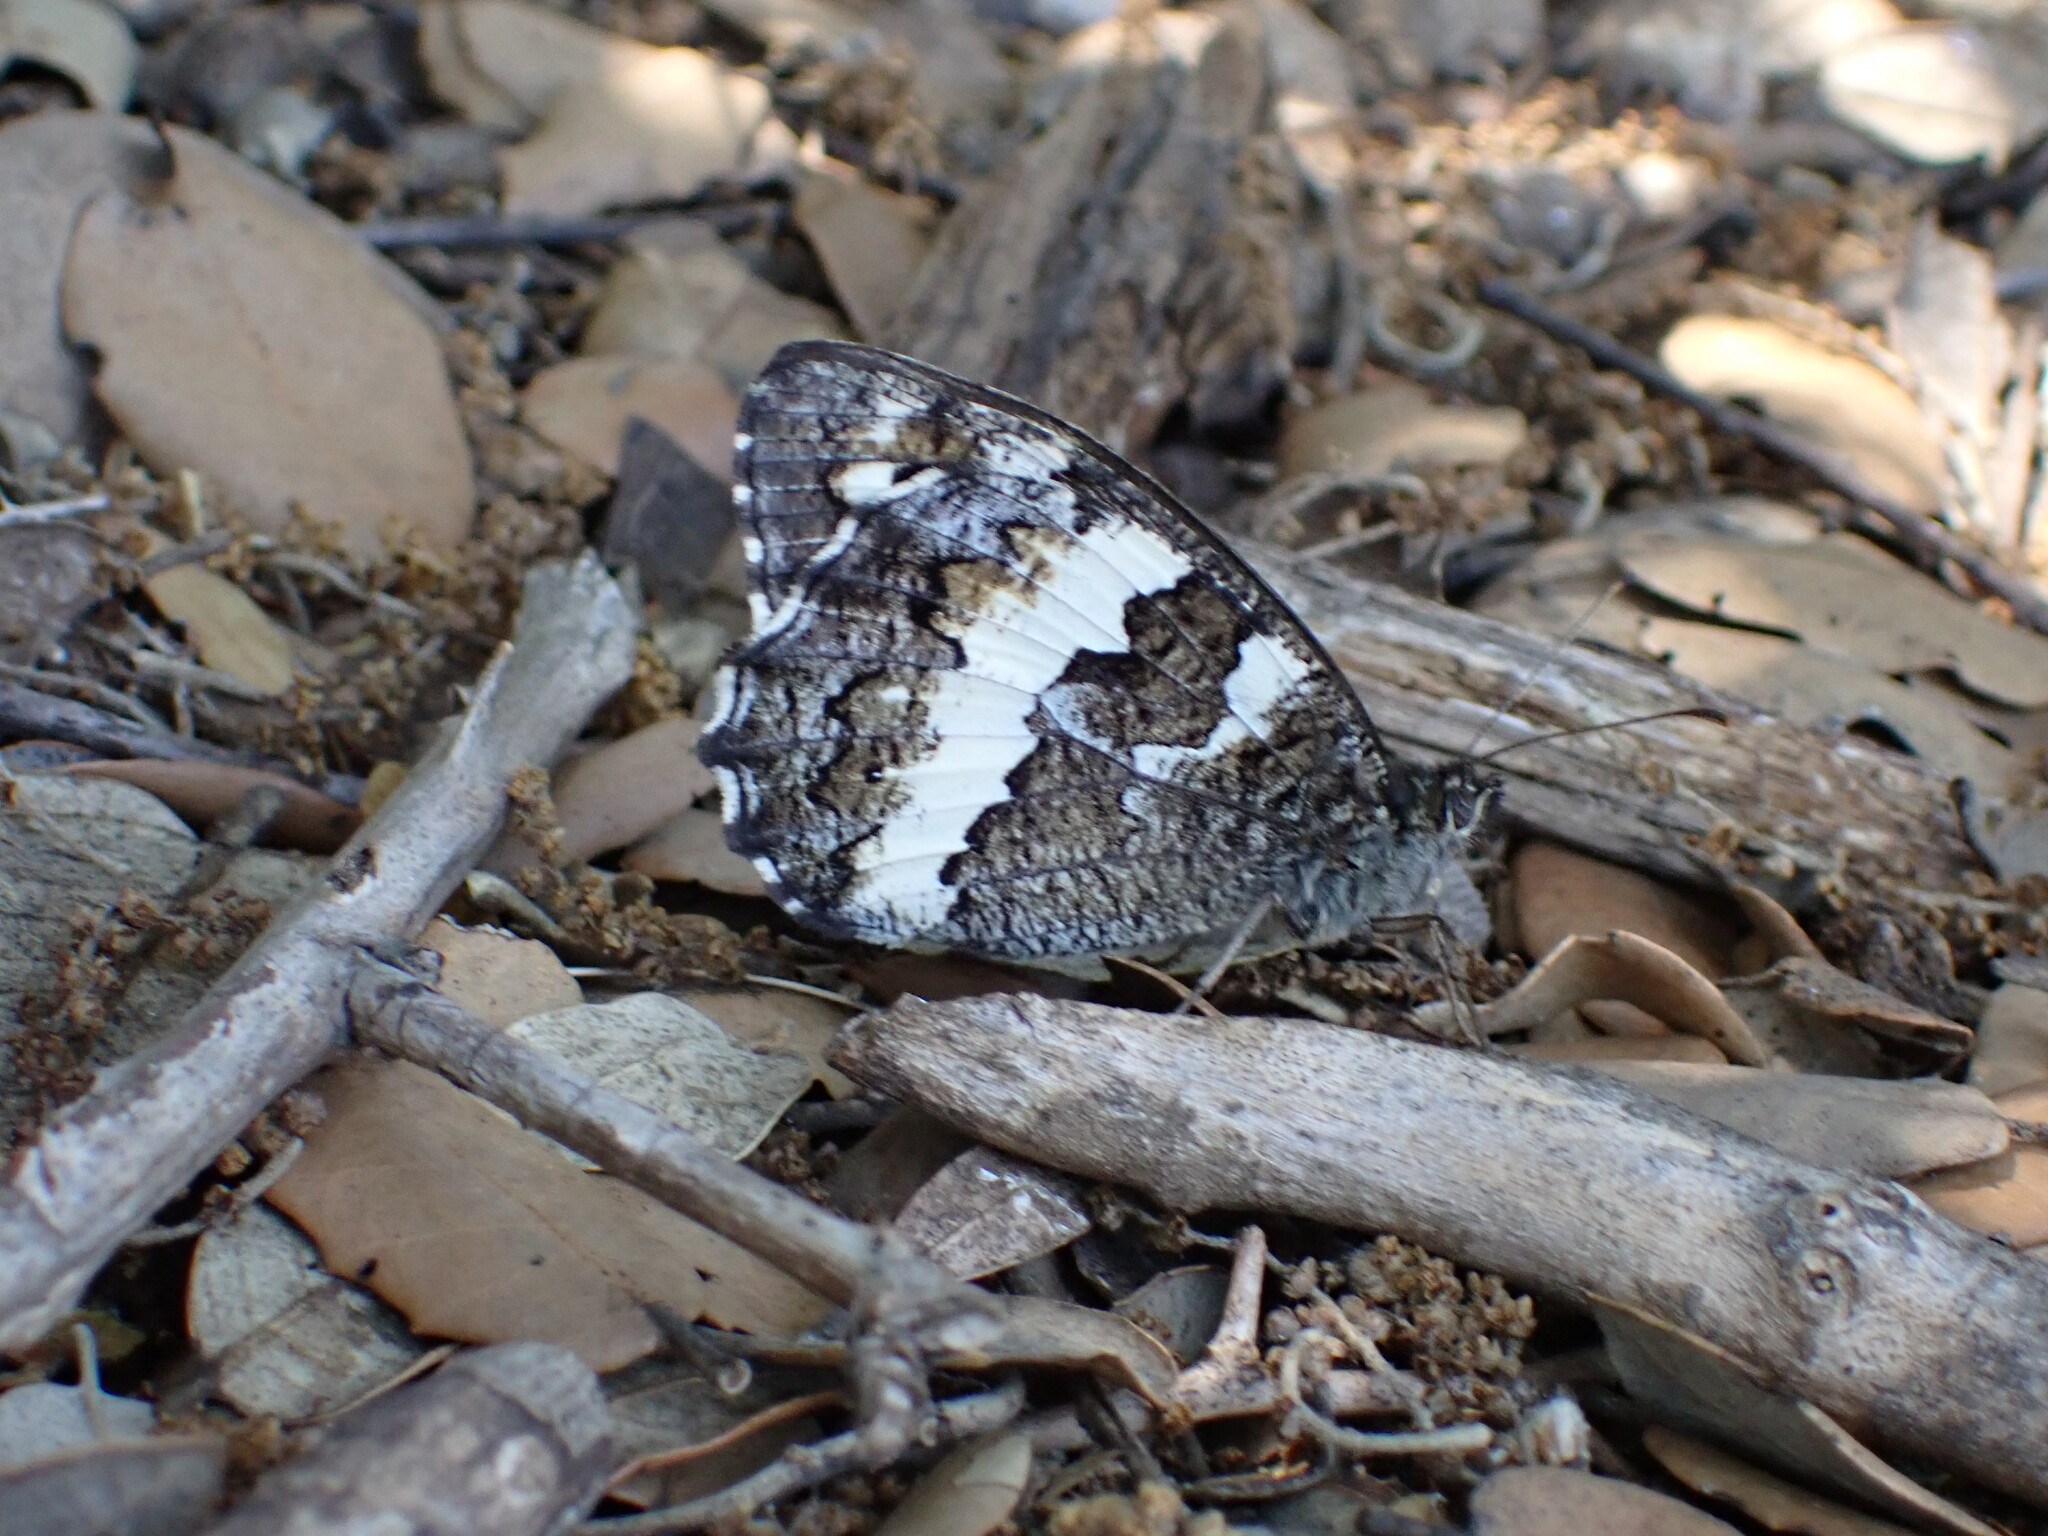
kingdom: Animalia
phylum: Arthropoda
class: Insecta
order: Lepidoptera
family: Lycaenidae
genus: Loweia
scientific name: Loweia tityrus
